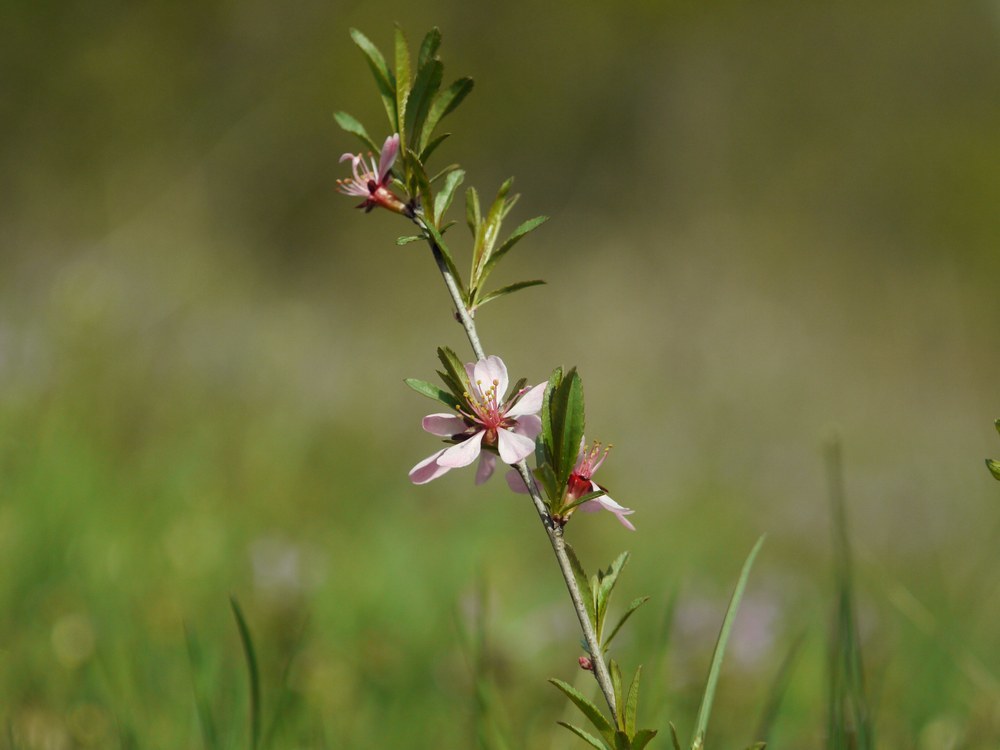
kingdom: Plantae
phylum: Tracheophyta
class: Magnoliopsida
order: Rosales
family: Rosaceae
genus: Prunus
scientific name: Prunus tenella
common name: Dwarf russian almond
